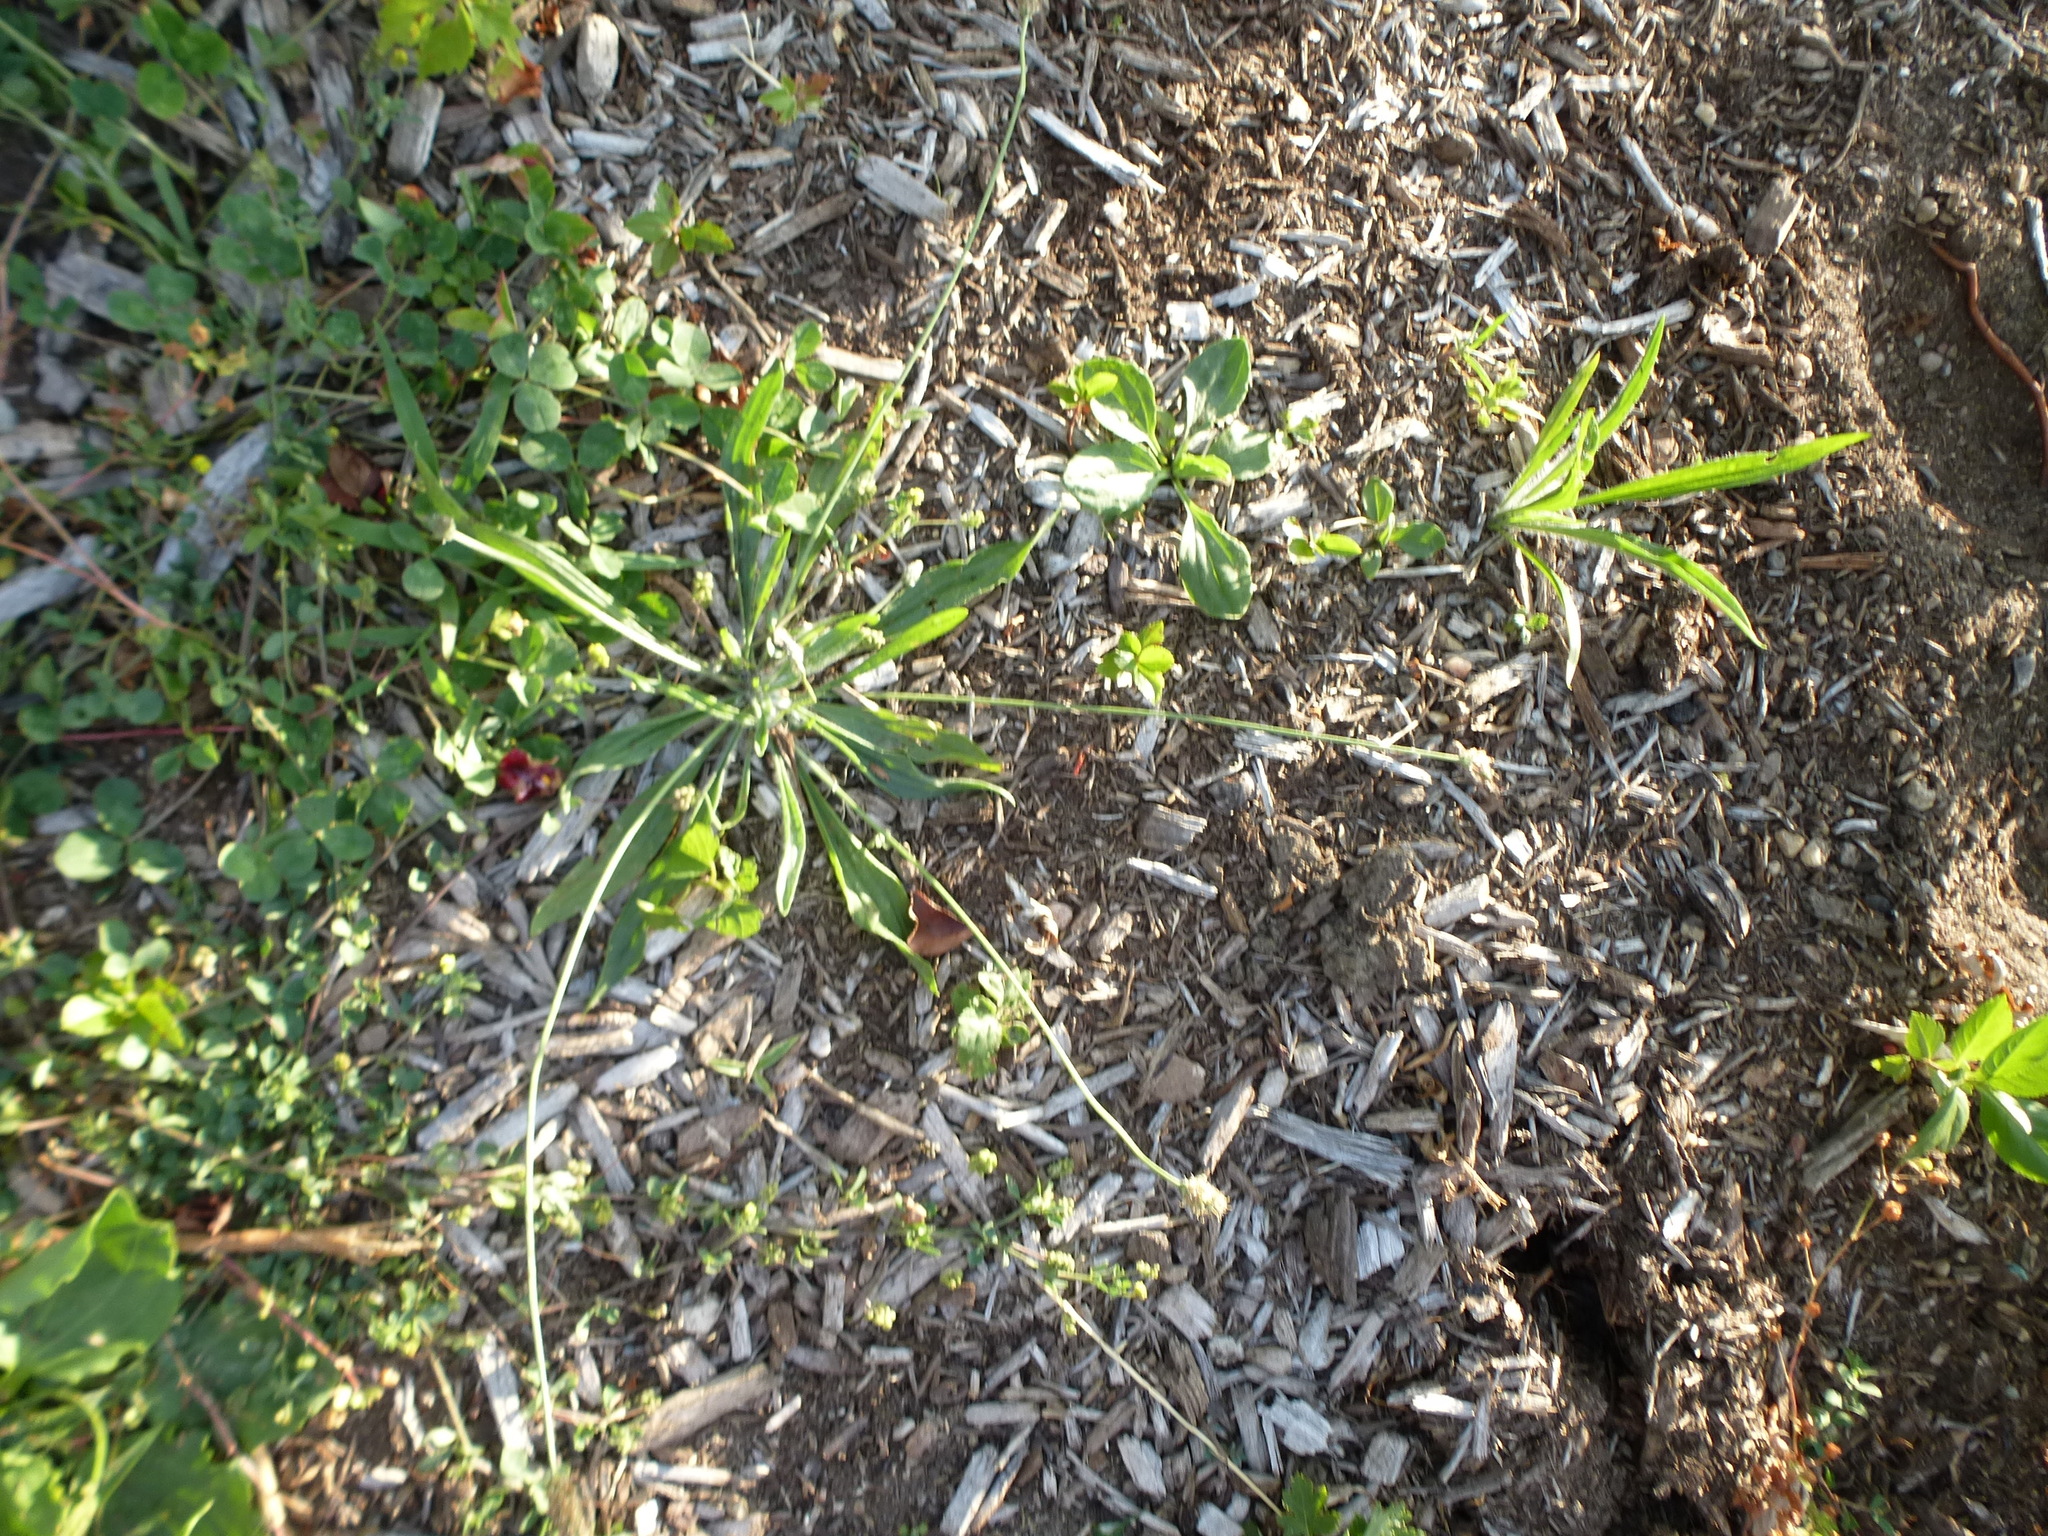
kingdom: Plantae
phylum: Tracheophyta
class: Magnoliopsida
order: Lamiales
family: Plantaginaceae
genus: Plantago
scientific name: Plantago lanceolata
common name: Ribwort plantain
